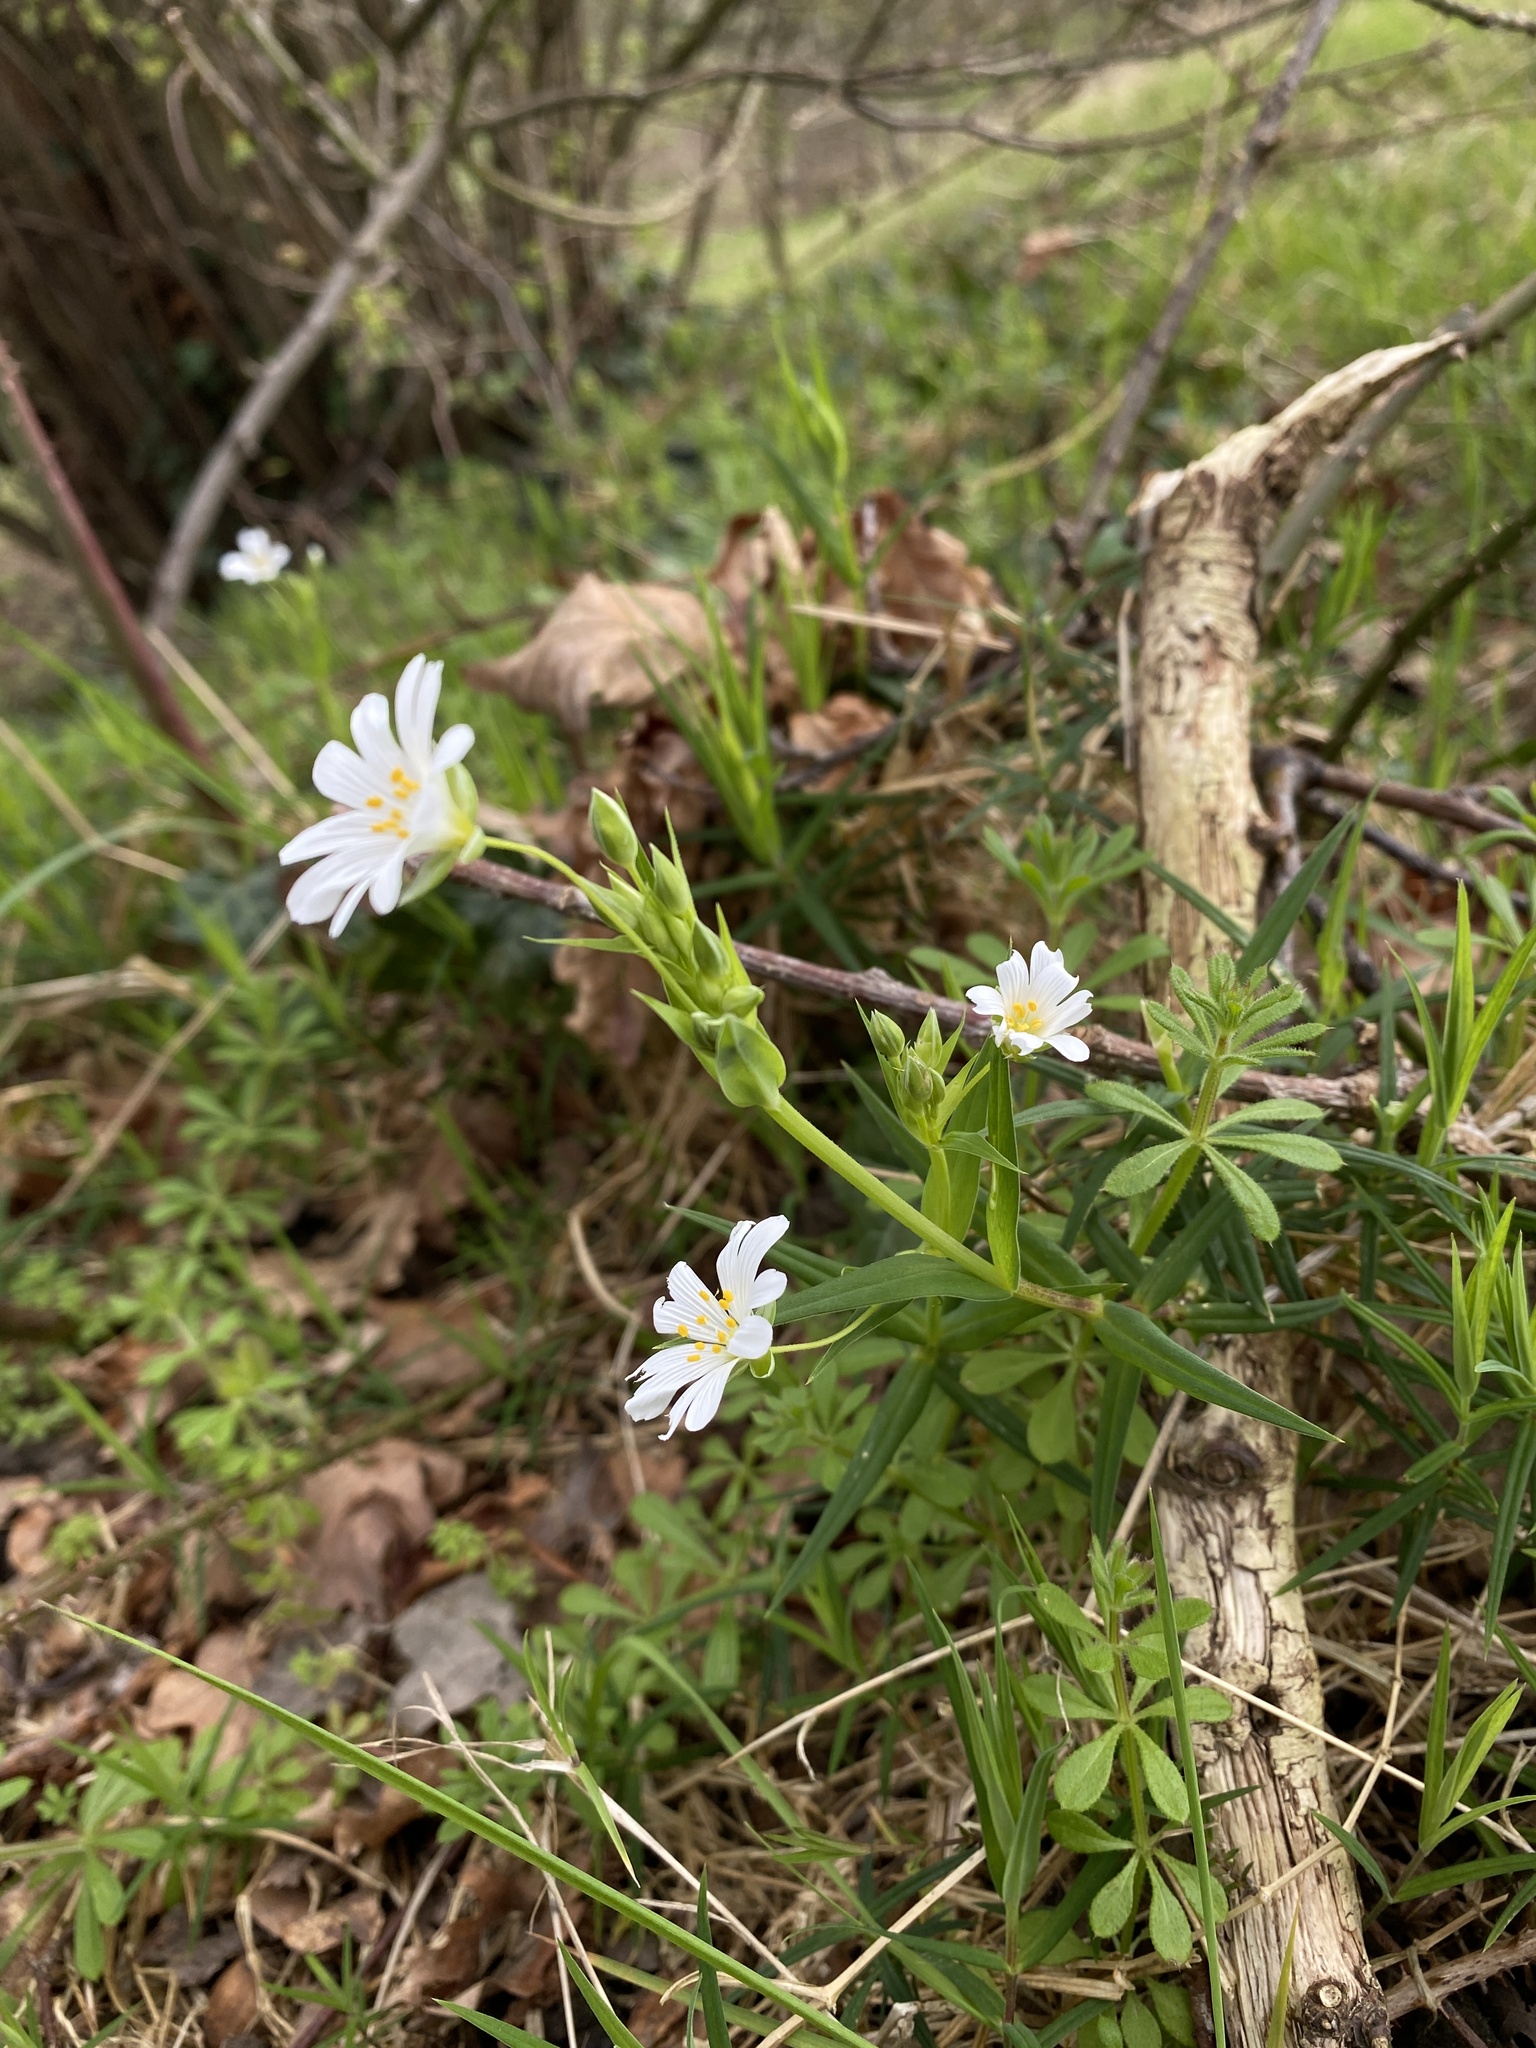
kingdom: Plantae
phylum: Tracheophyta
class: Magnoliopsida
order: Caryophyllales
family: Caryophyllaceae
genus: Rabelera
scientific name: Rabelera holostea
